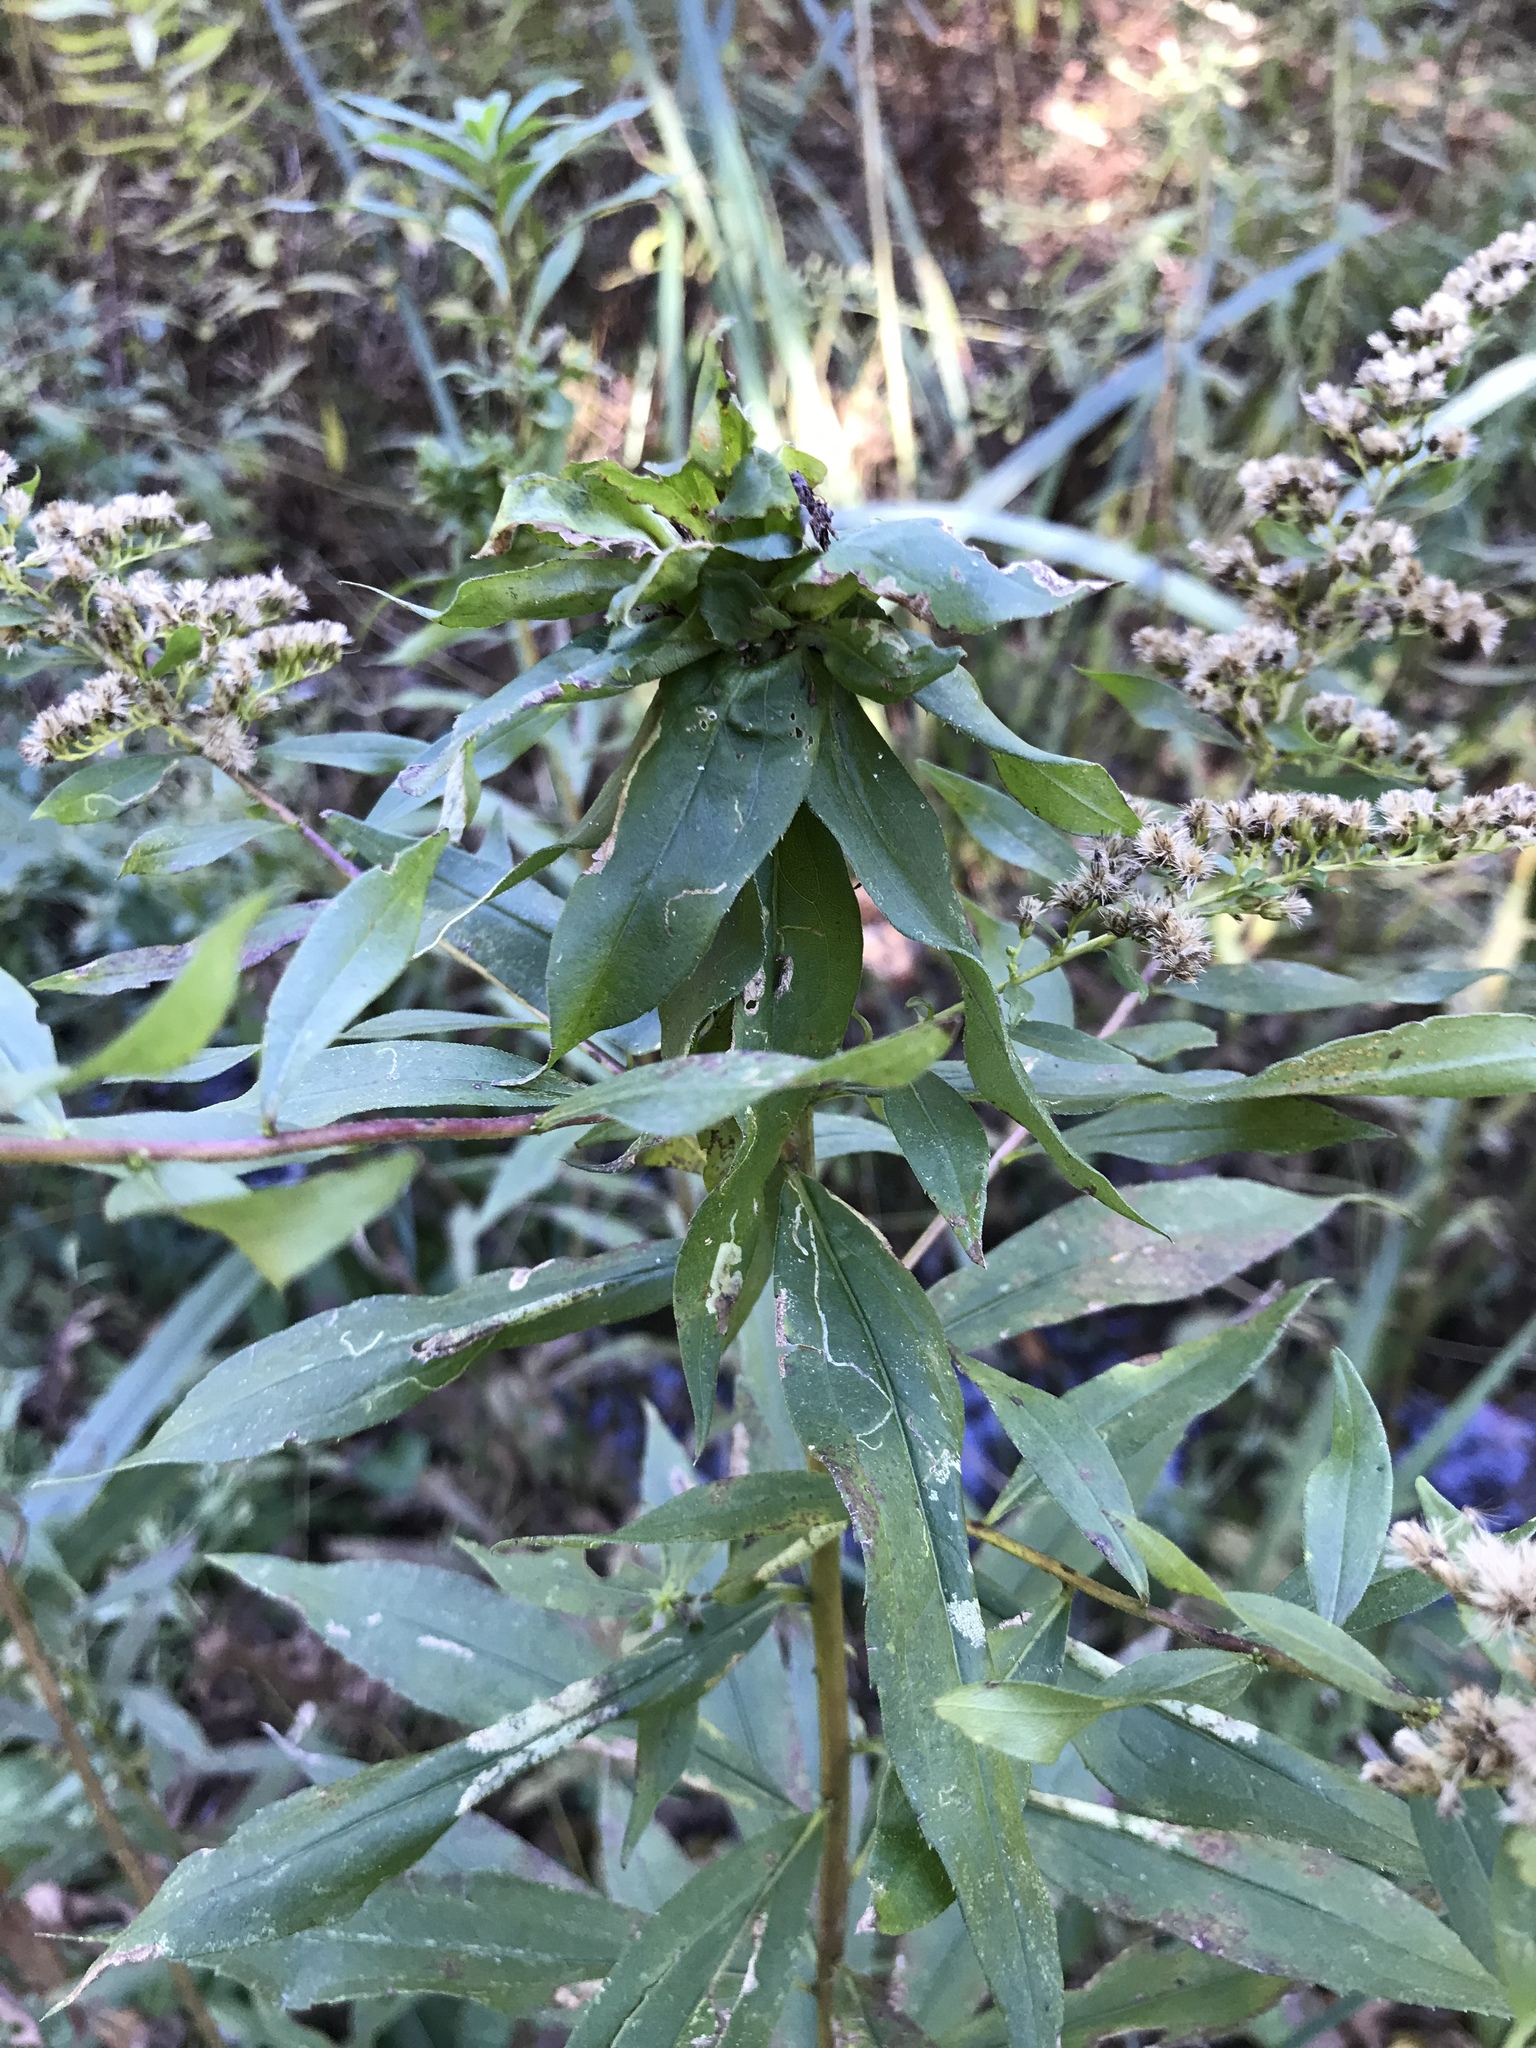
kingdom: Animalia
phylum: Arthropoda
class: Insecta
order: Diptera
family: Cecidomyiidae
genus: Rhopalomyia
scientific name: Rhopalomyia solidaginis
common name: Goldenrod bunch gall midge
